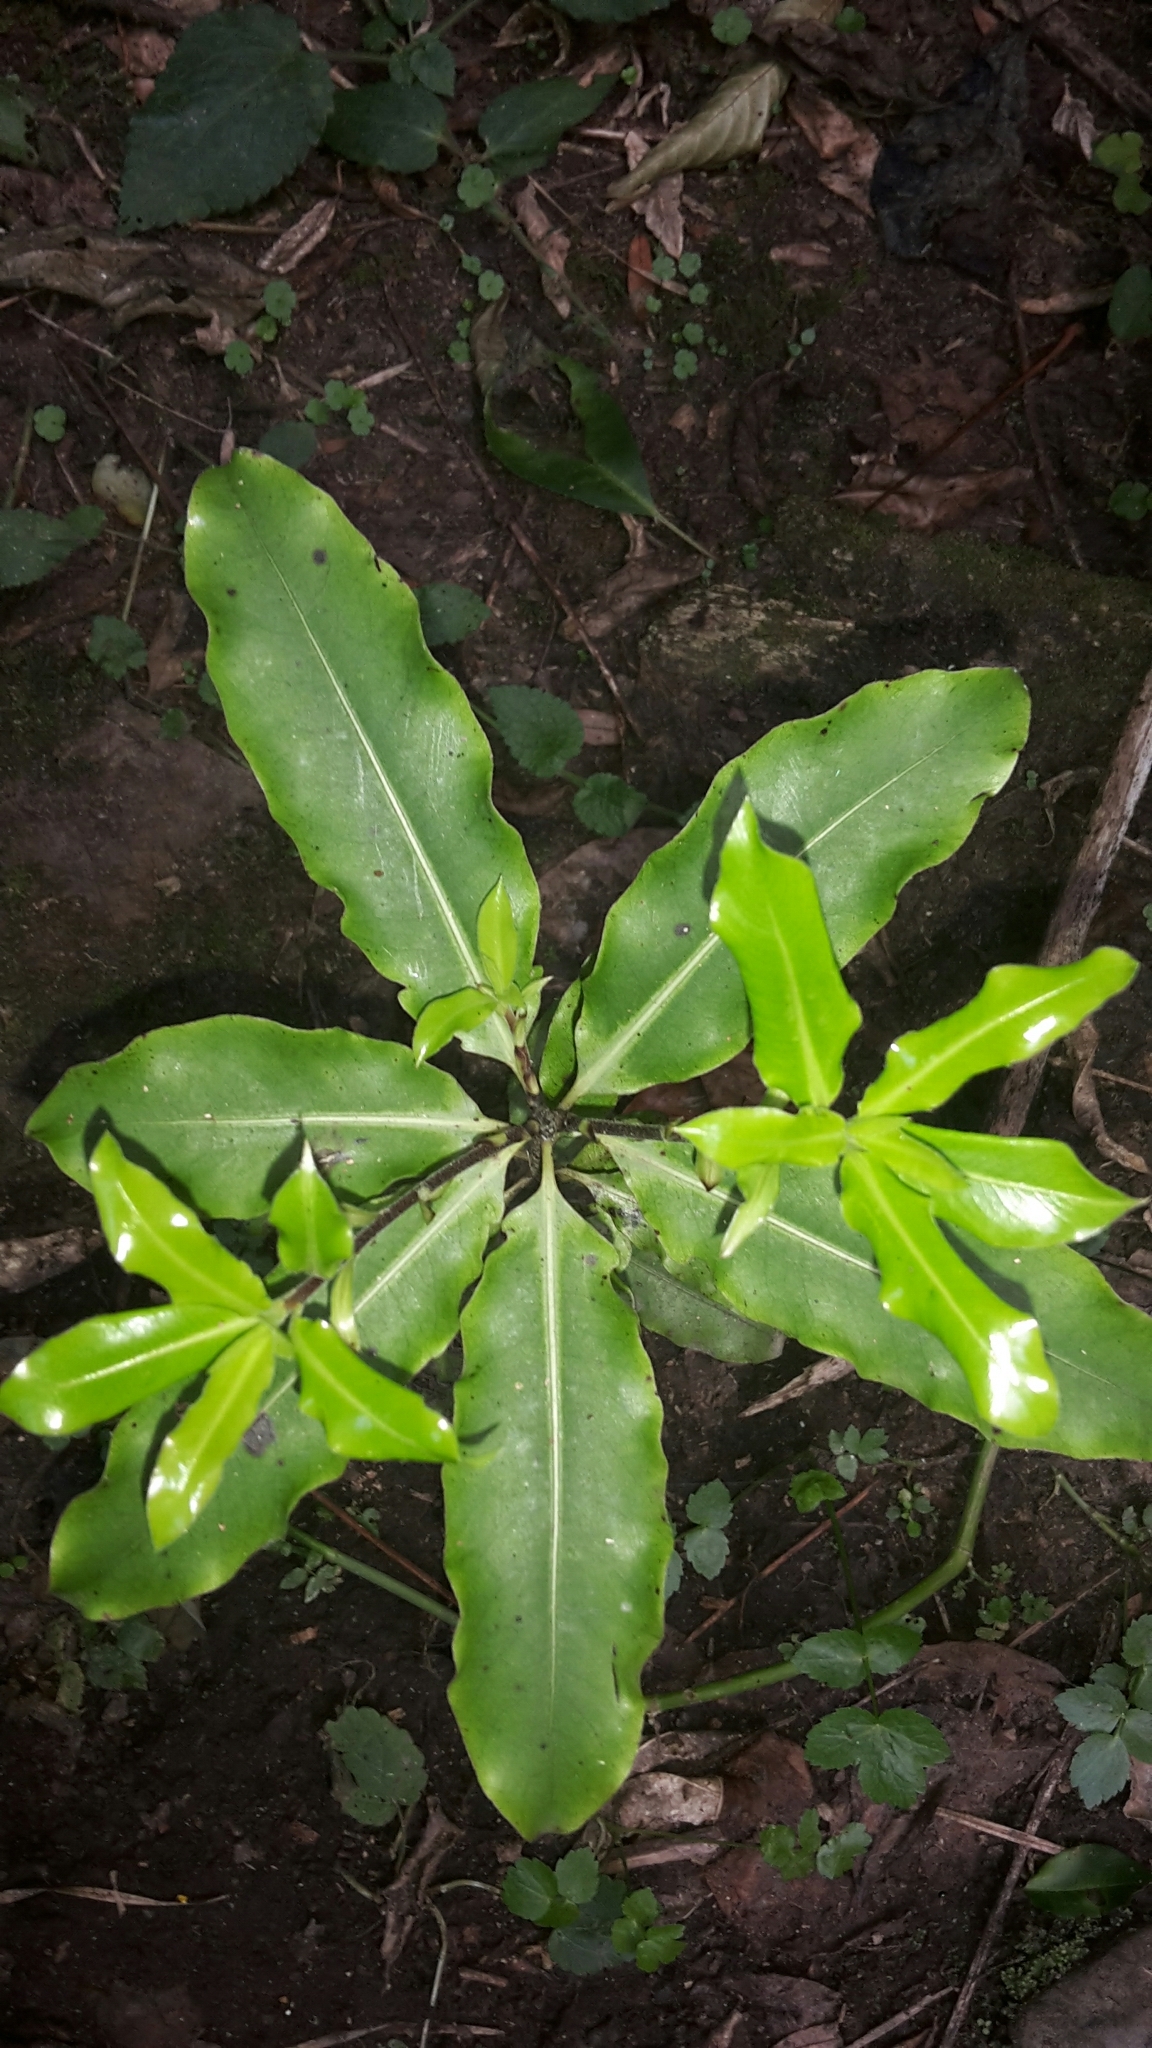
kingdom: Plantae
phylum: Tracheophyta
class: Magnoliopsida
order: Apiales
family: Pittosporaceae
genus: Pittosporum
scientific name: Pittosporum eugenioides
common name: Lemonwood
